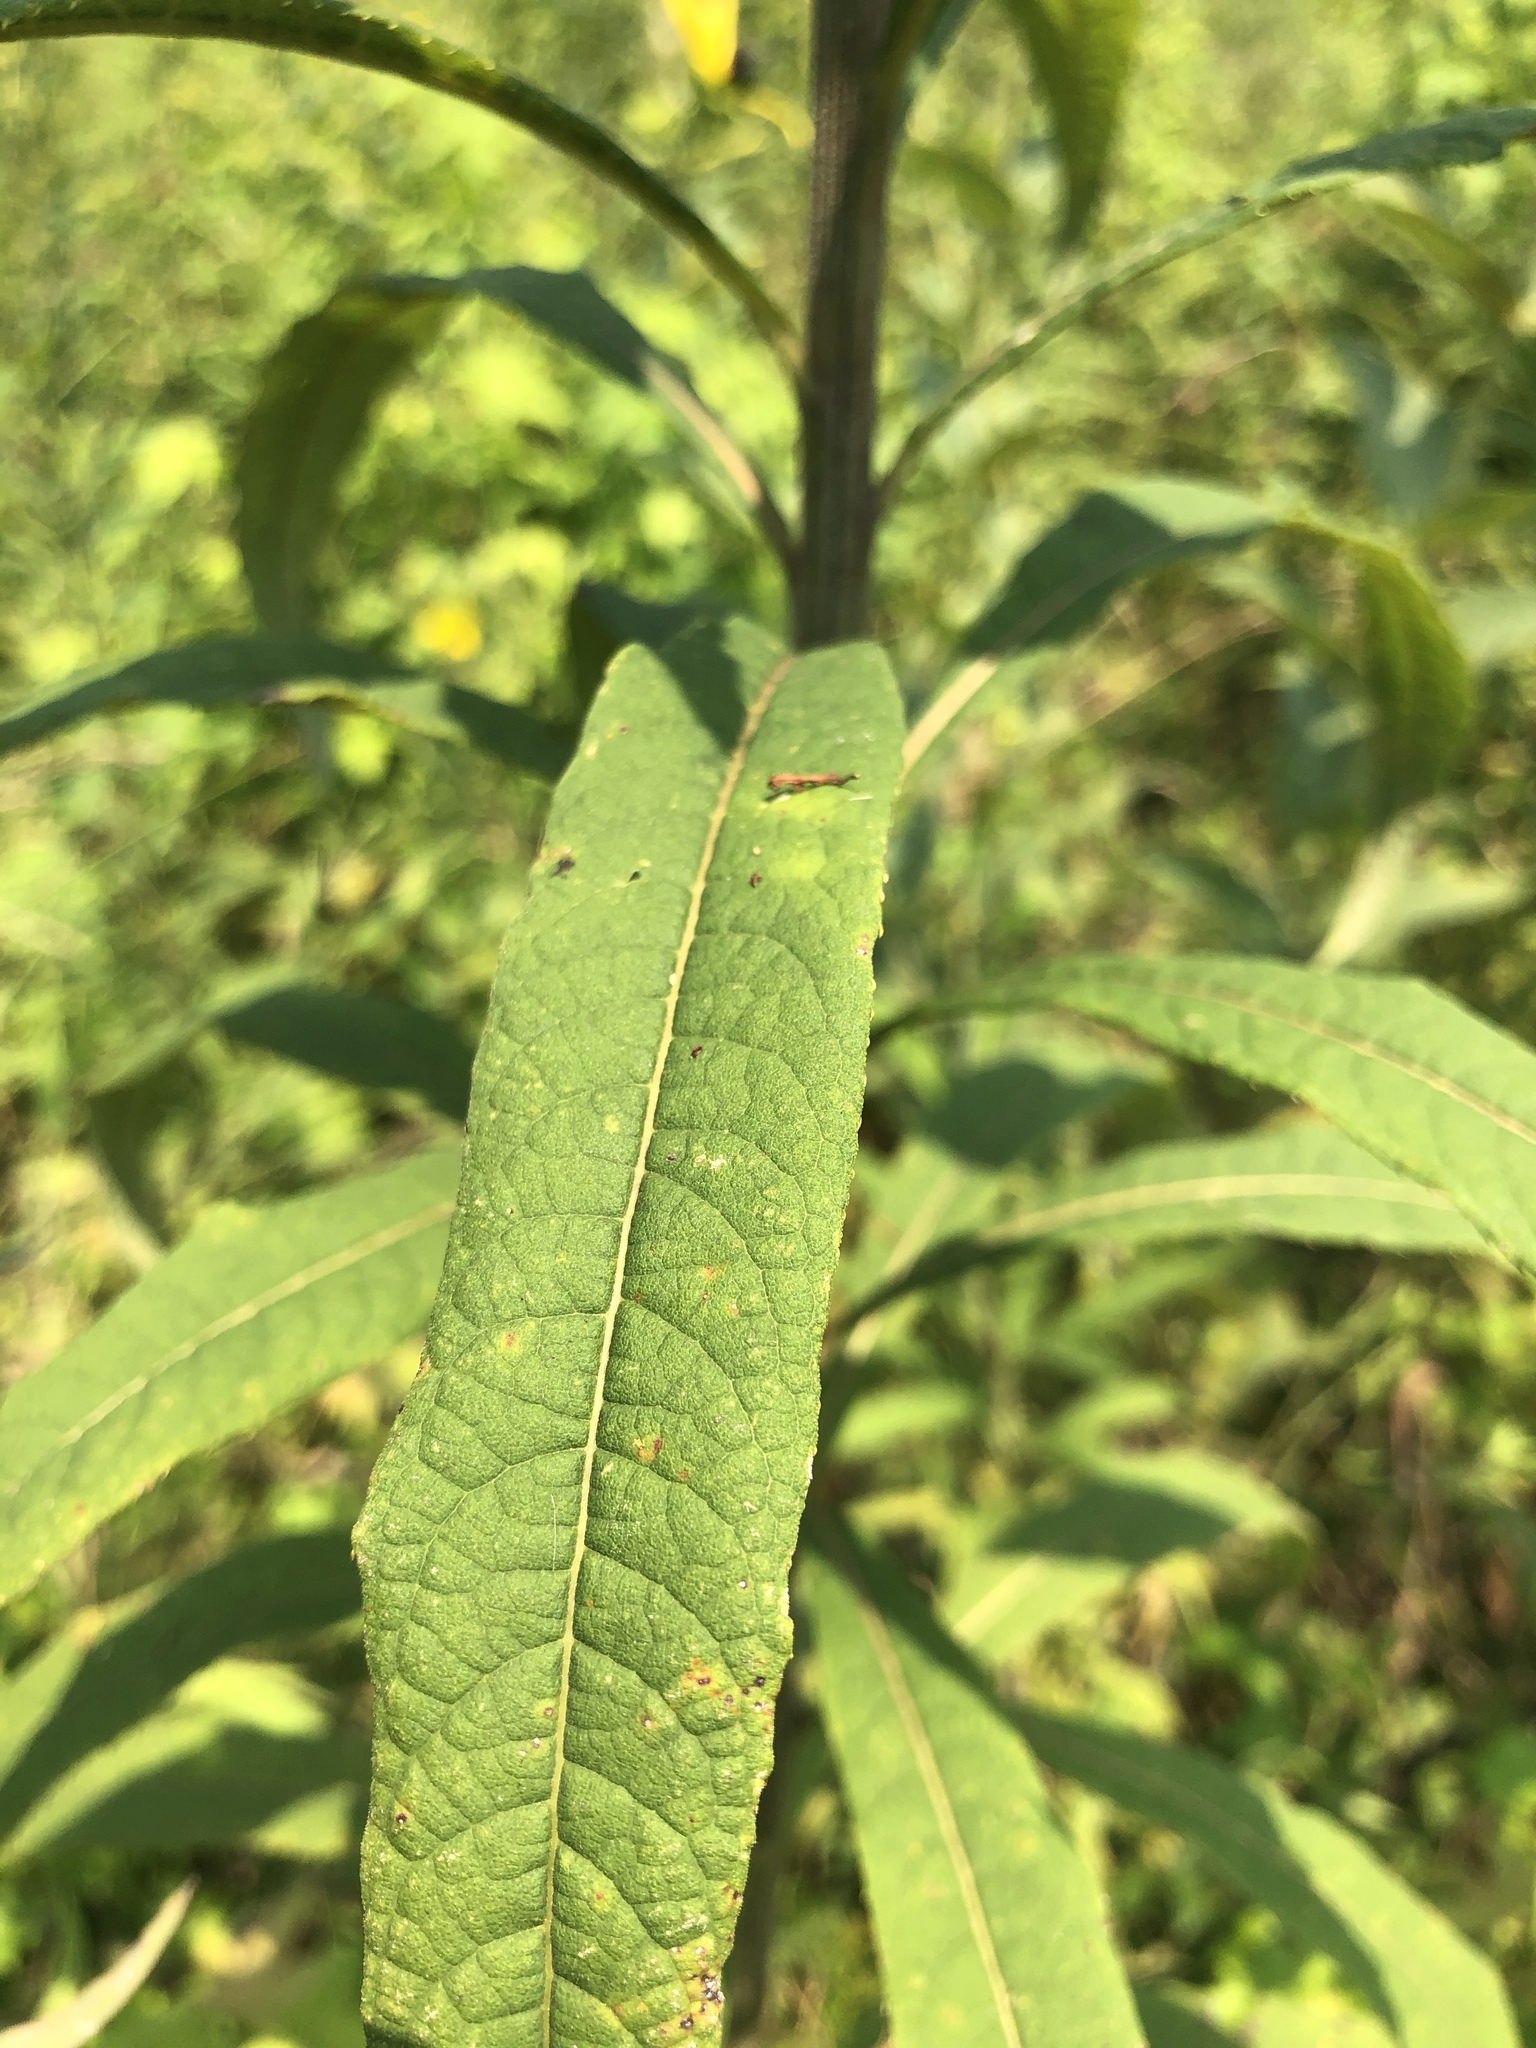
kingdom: Plantae
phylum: Tracheophyta
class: Magnoliopsida
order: Asterales
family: Asteraceae
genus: Vernonia
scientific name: Vernonia gigantea
